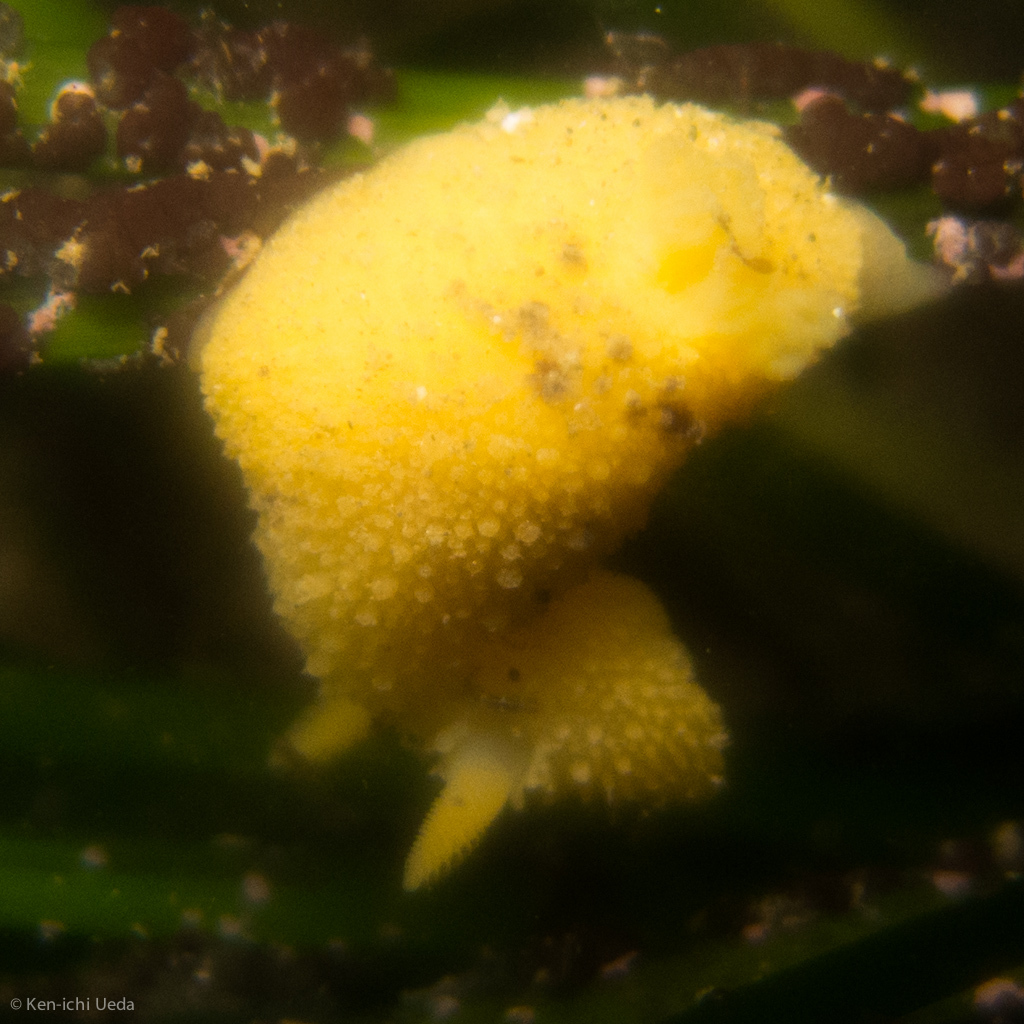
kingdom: Animalia
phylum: Mollusca
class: Gastropoda
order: Nudibranchia
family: Dorididae
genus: Doris
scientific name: Doris montereyensis
